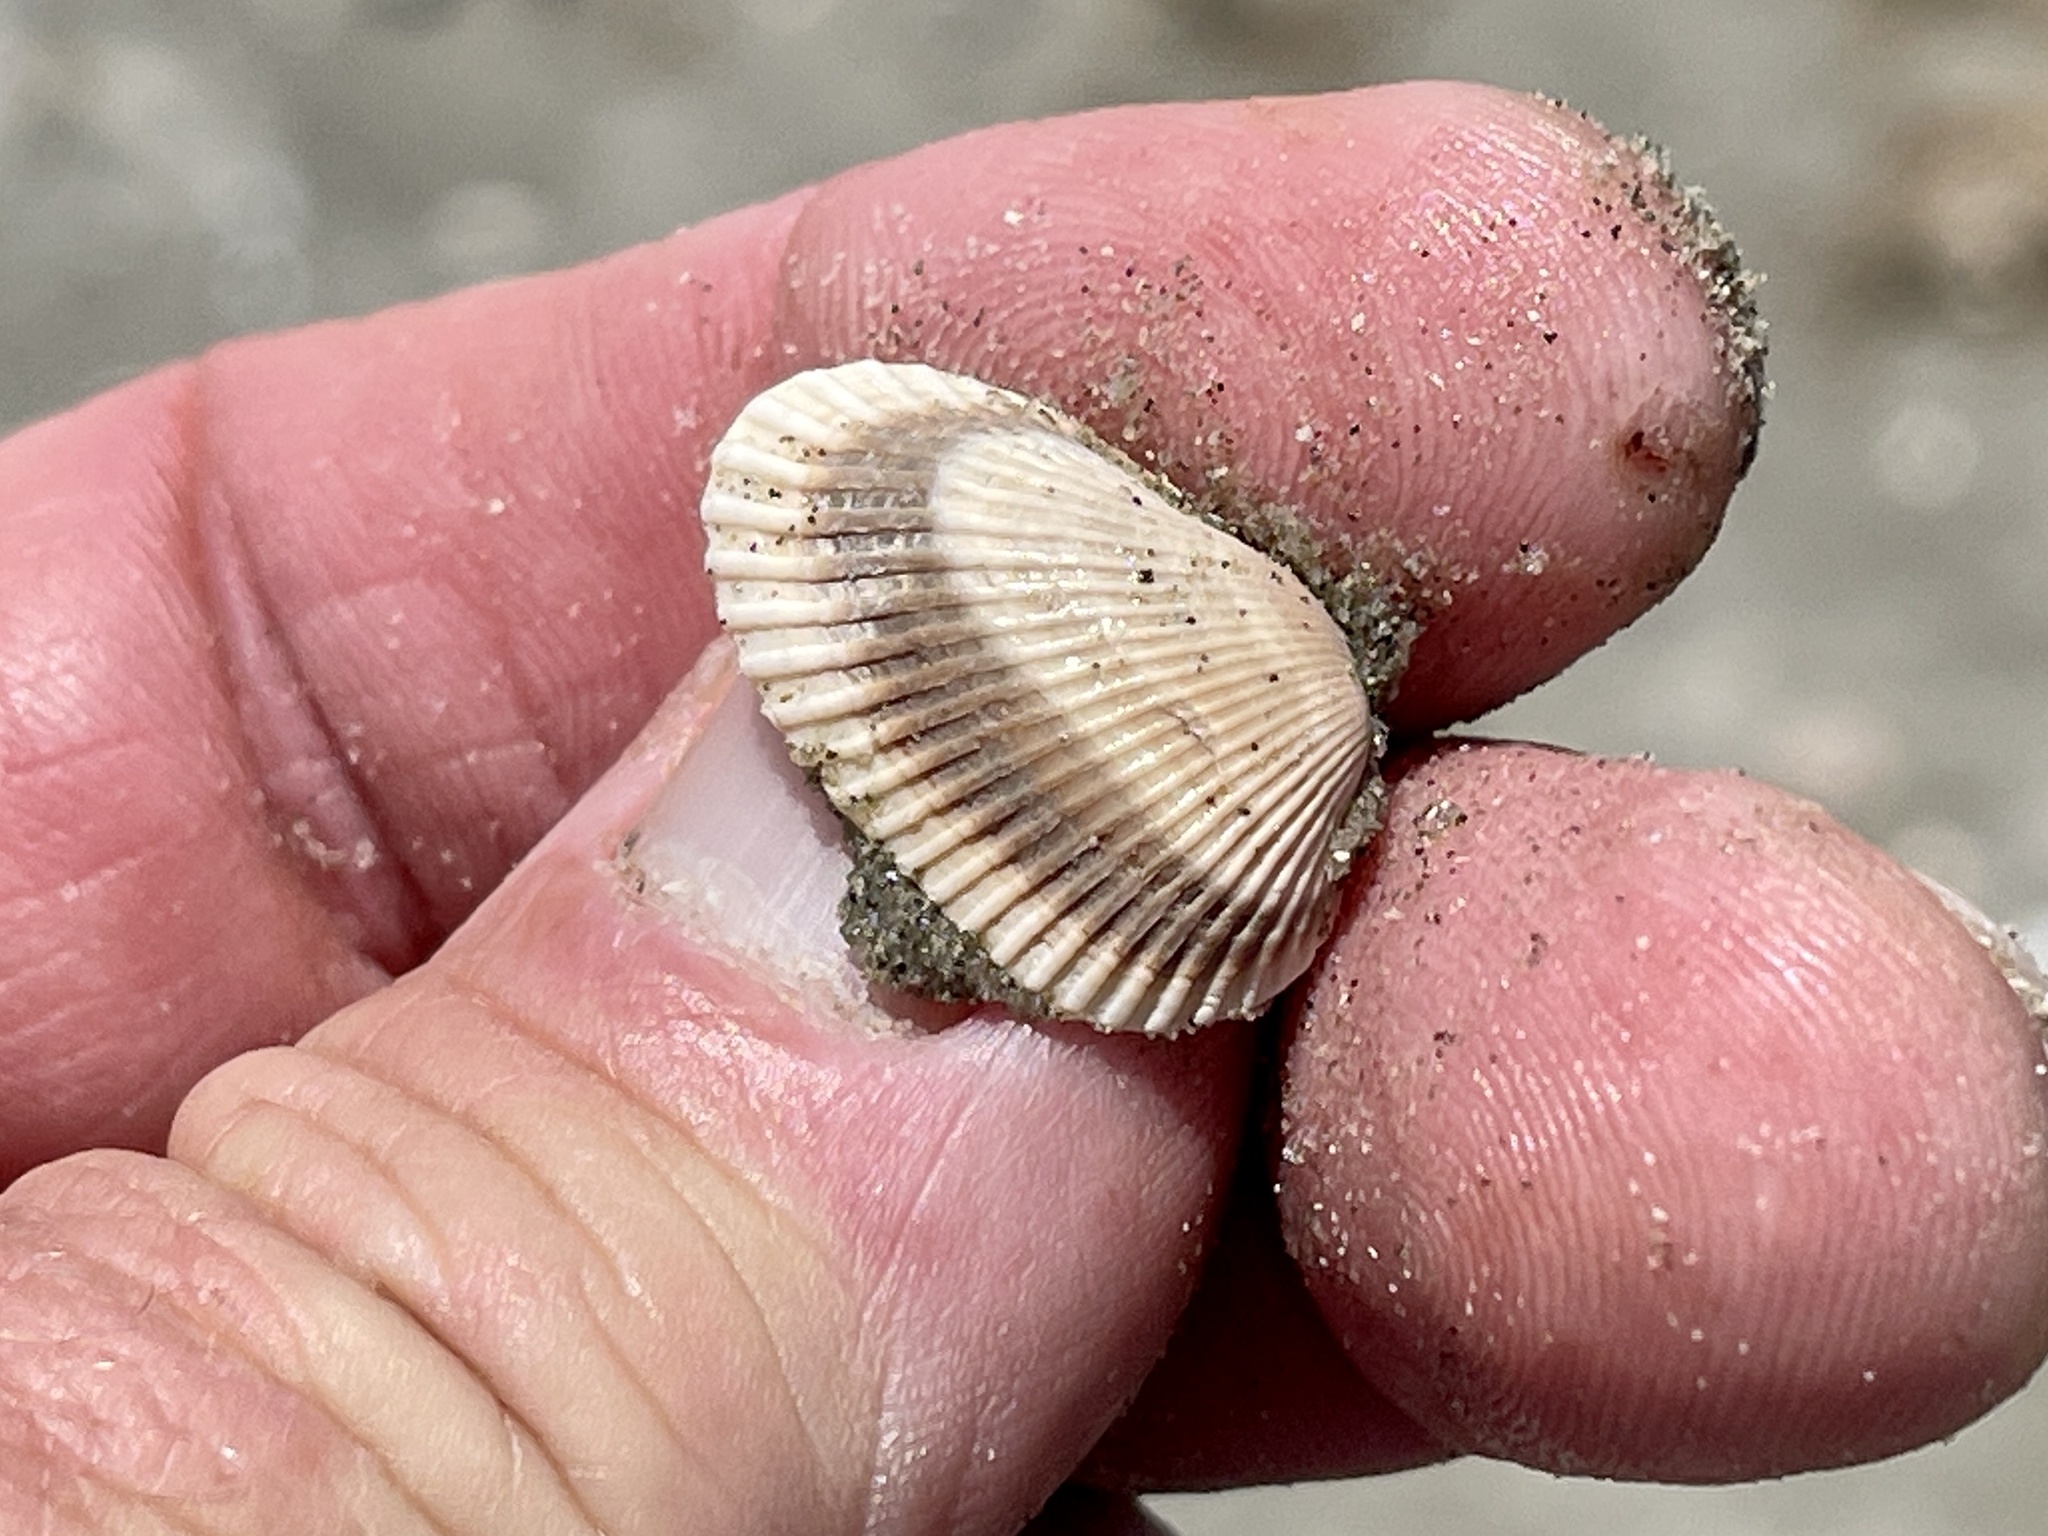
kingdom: Animalia
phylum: Mollusca
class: Bivalvia
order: Arcida
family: Arcidae
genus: Anadara
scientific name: Anadara transversa
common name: Transverse ark
